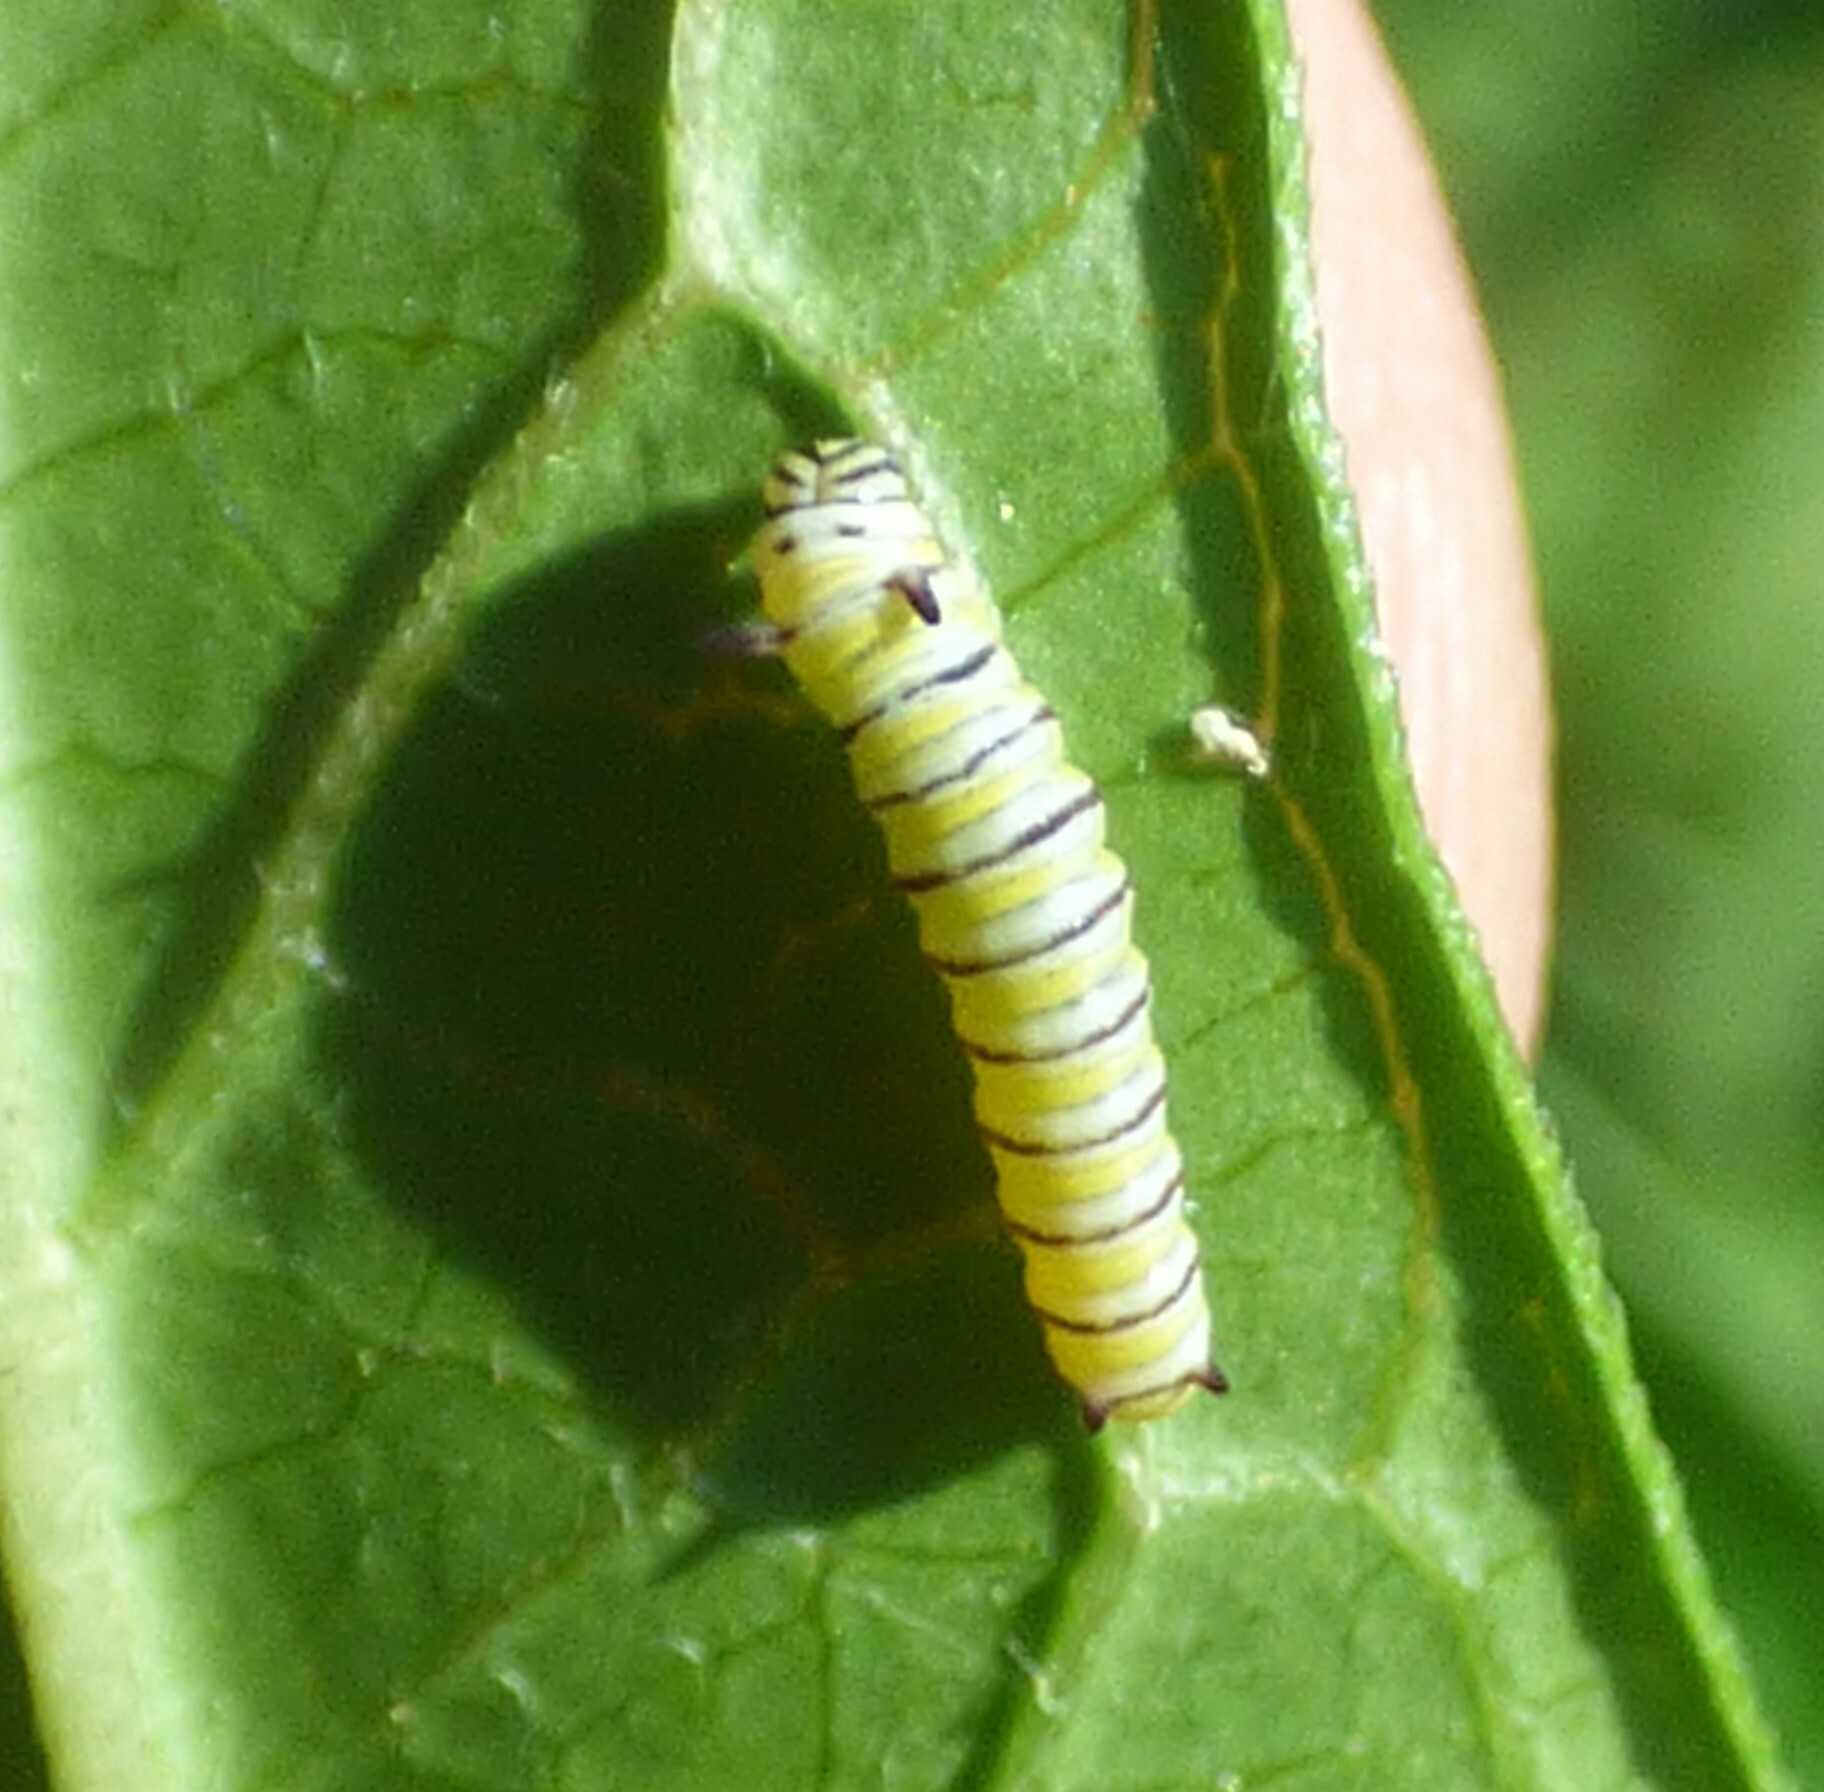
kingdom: Animalia
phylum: Arthropoda
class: Insecta
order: Lepidoptera
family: Nymphalidae
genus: Danaus
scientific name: Danaus plexippus
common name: Monarch
